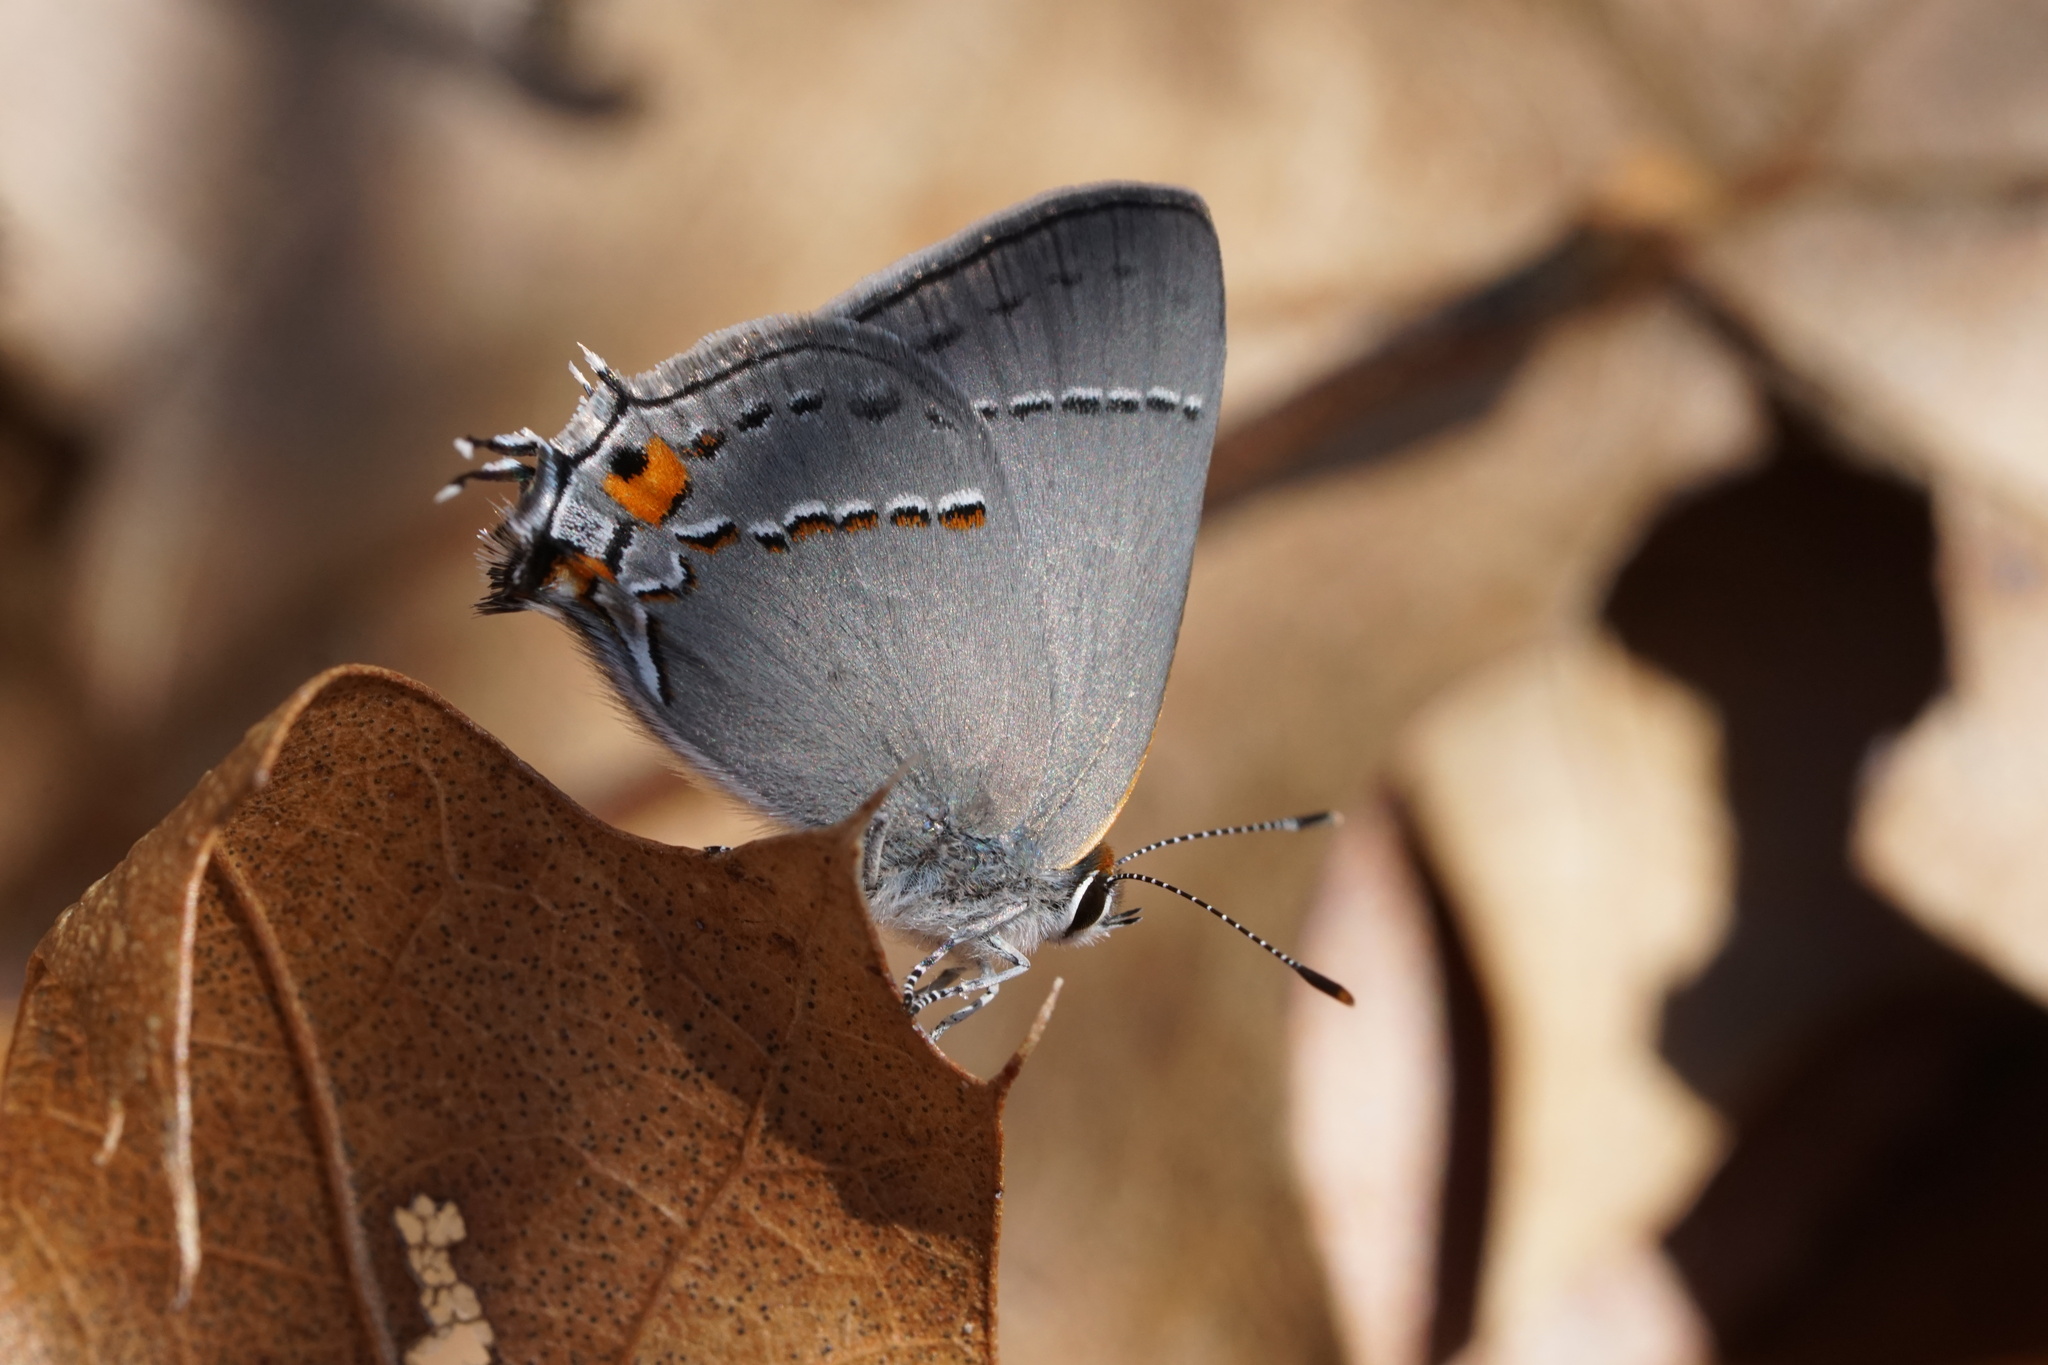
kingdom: Animalia
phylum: Arthropoda
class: Insecta
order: Lepidoptera
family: Lycaenidae
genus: Strymon
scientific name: Strymon melinus
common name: Gray hairstreak
